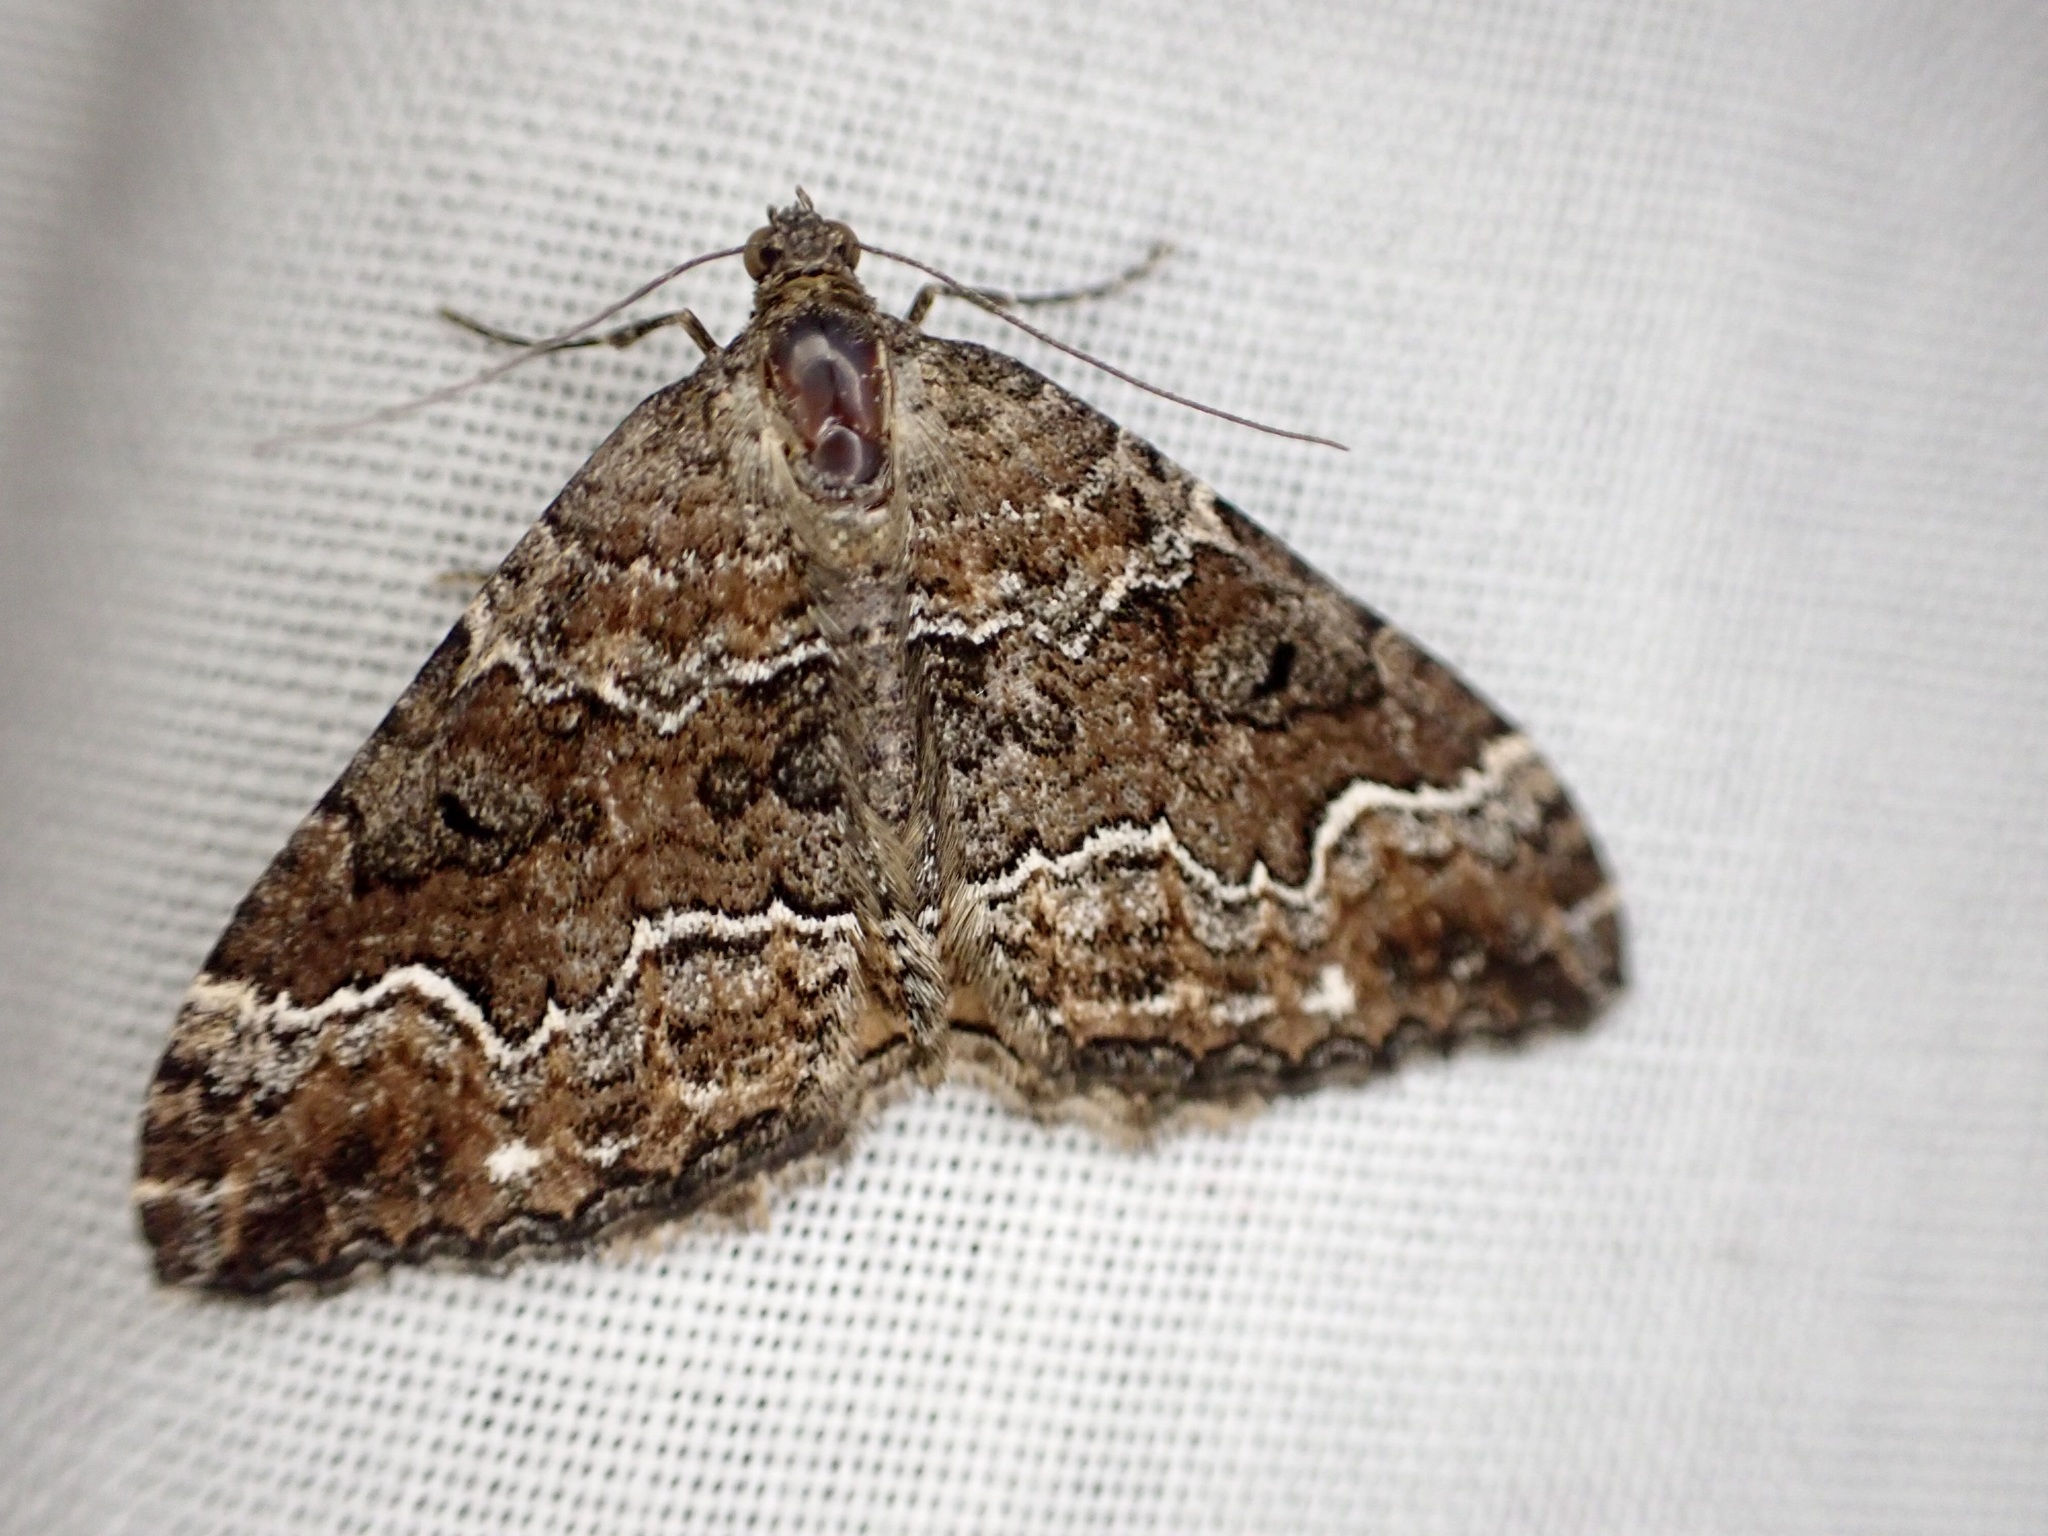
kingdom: Animalia
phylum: Arthropoda
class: Insecta
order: Lepidoptera
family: Geometridae
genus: Hydriomena
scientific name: Hydriomena deltoidata
